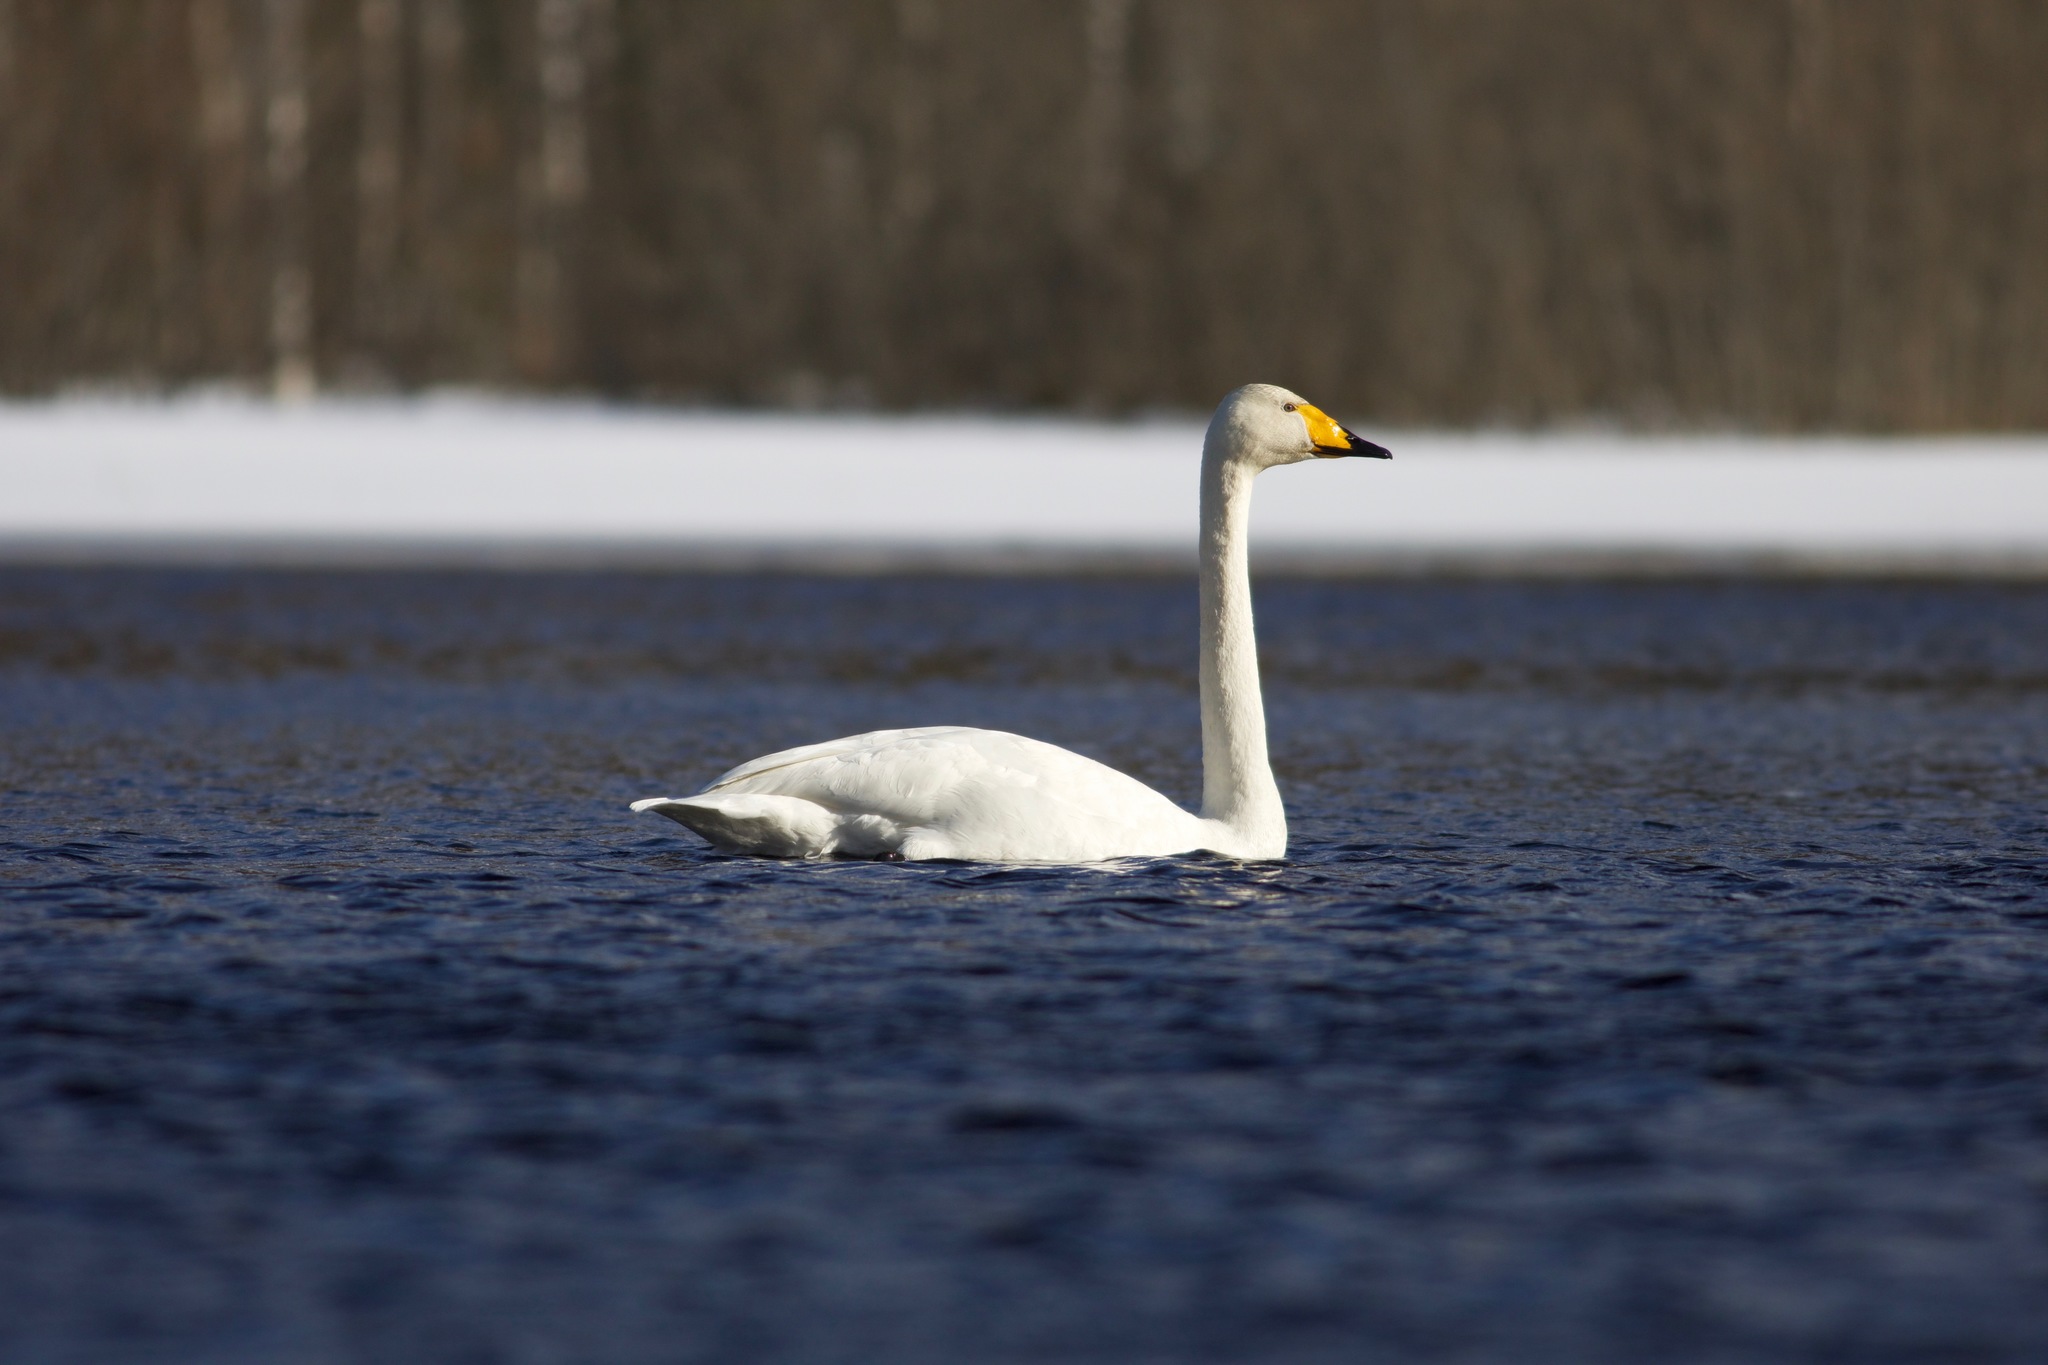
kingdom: Animalia
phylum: Chordata
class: Aves
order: Anseriformes
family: Anatidae
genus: Cygnus
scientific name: Cygnus cygnus
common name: Whooper swan
